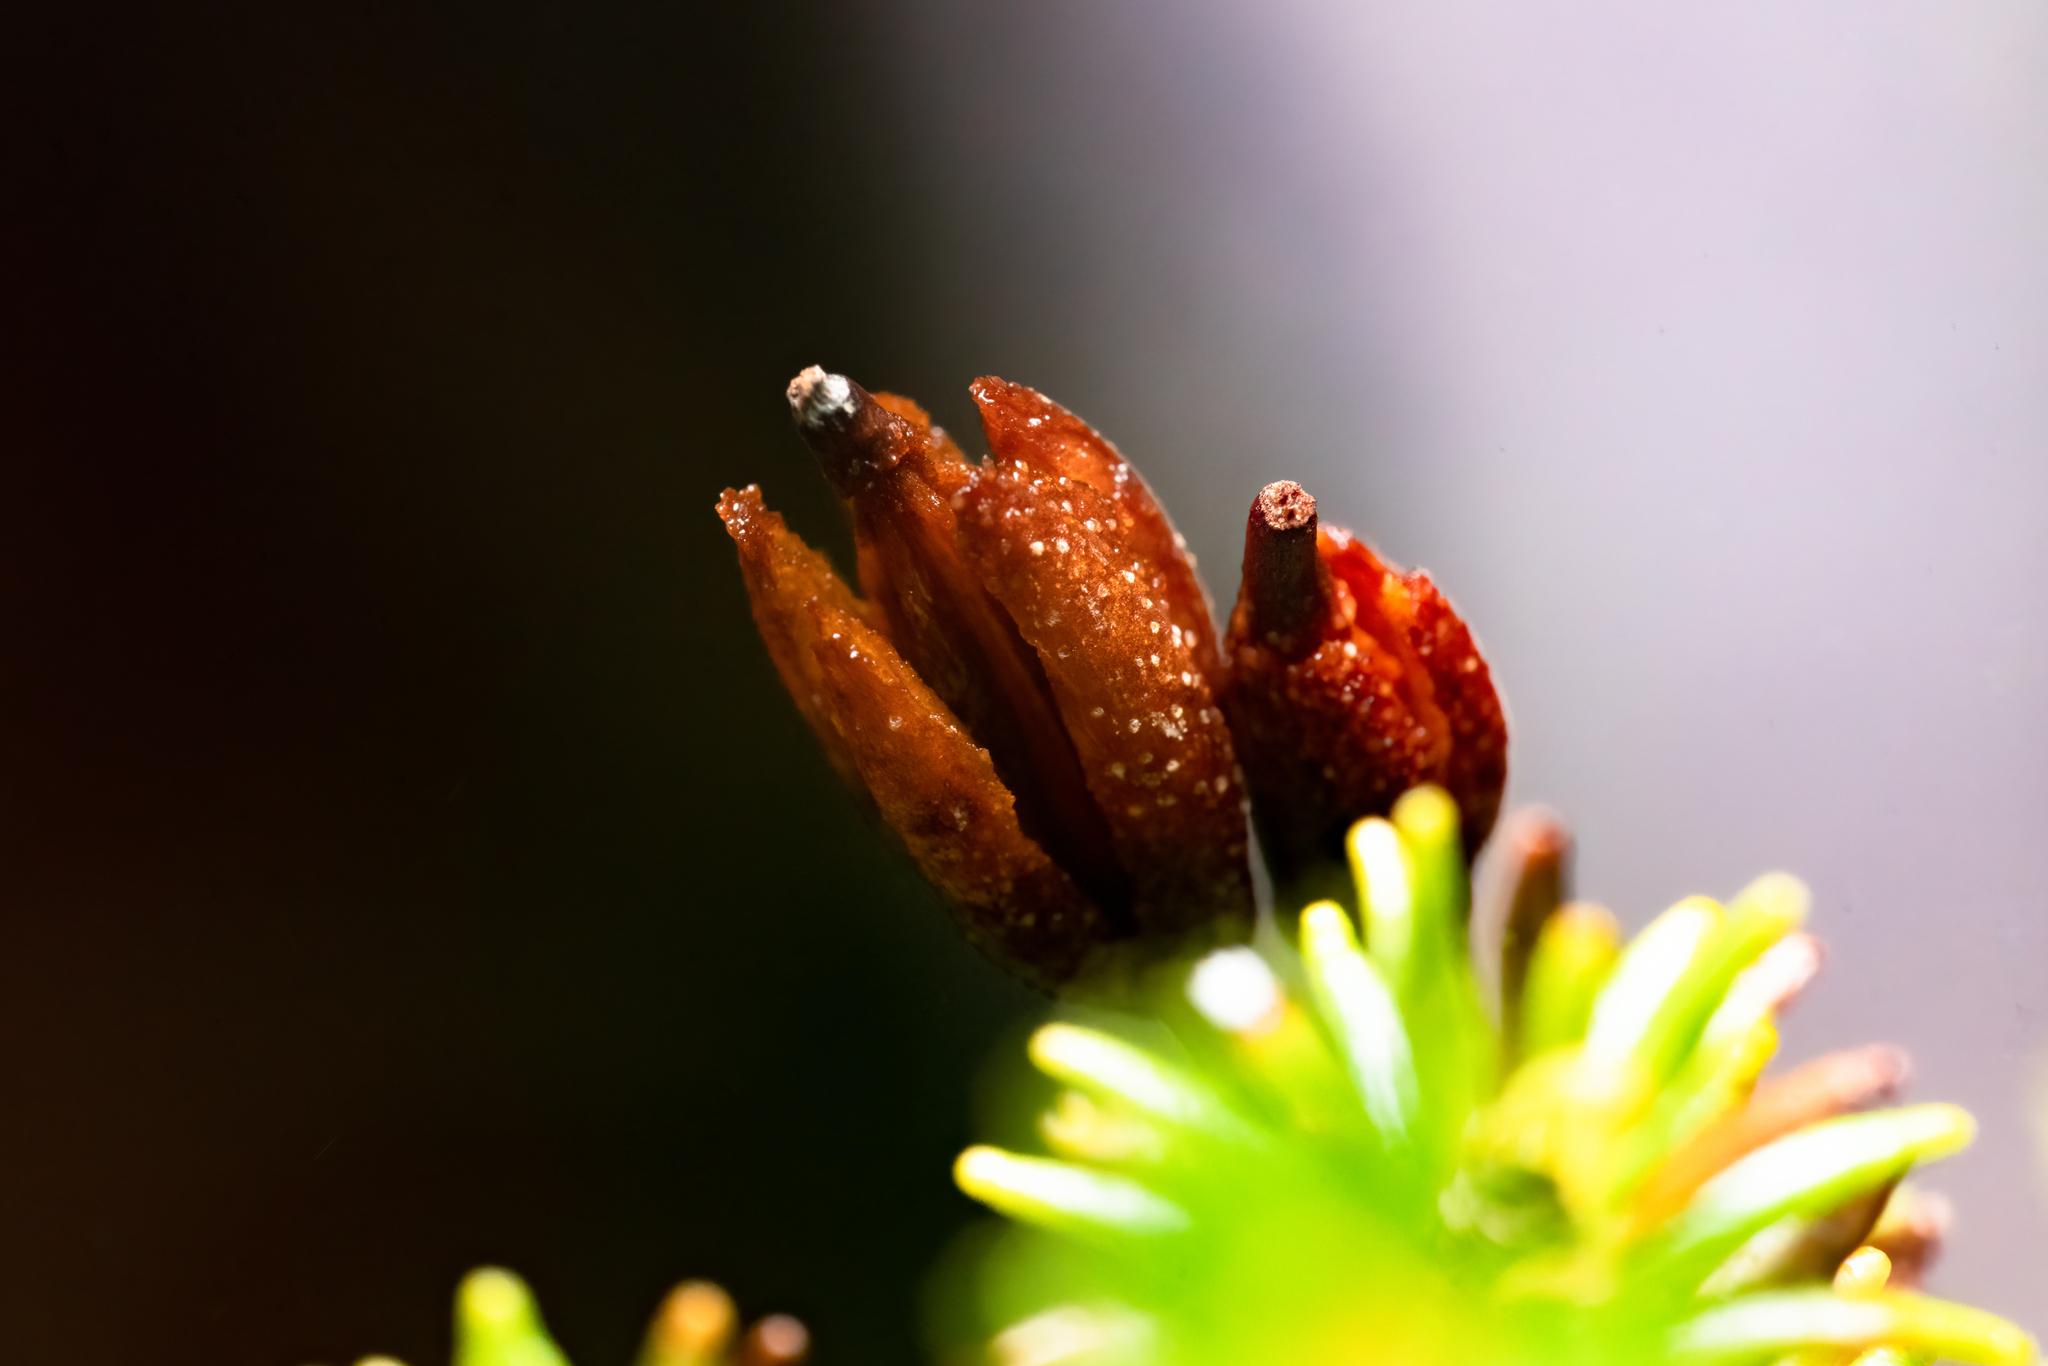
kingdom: Plantae
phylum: Tracheophyta
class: Magnoliopsida
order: Ericales
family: Ericaceae
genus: Rhododendron
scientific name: Rhododendron ericoides
